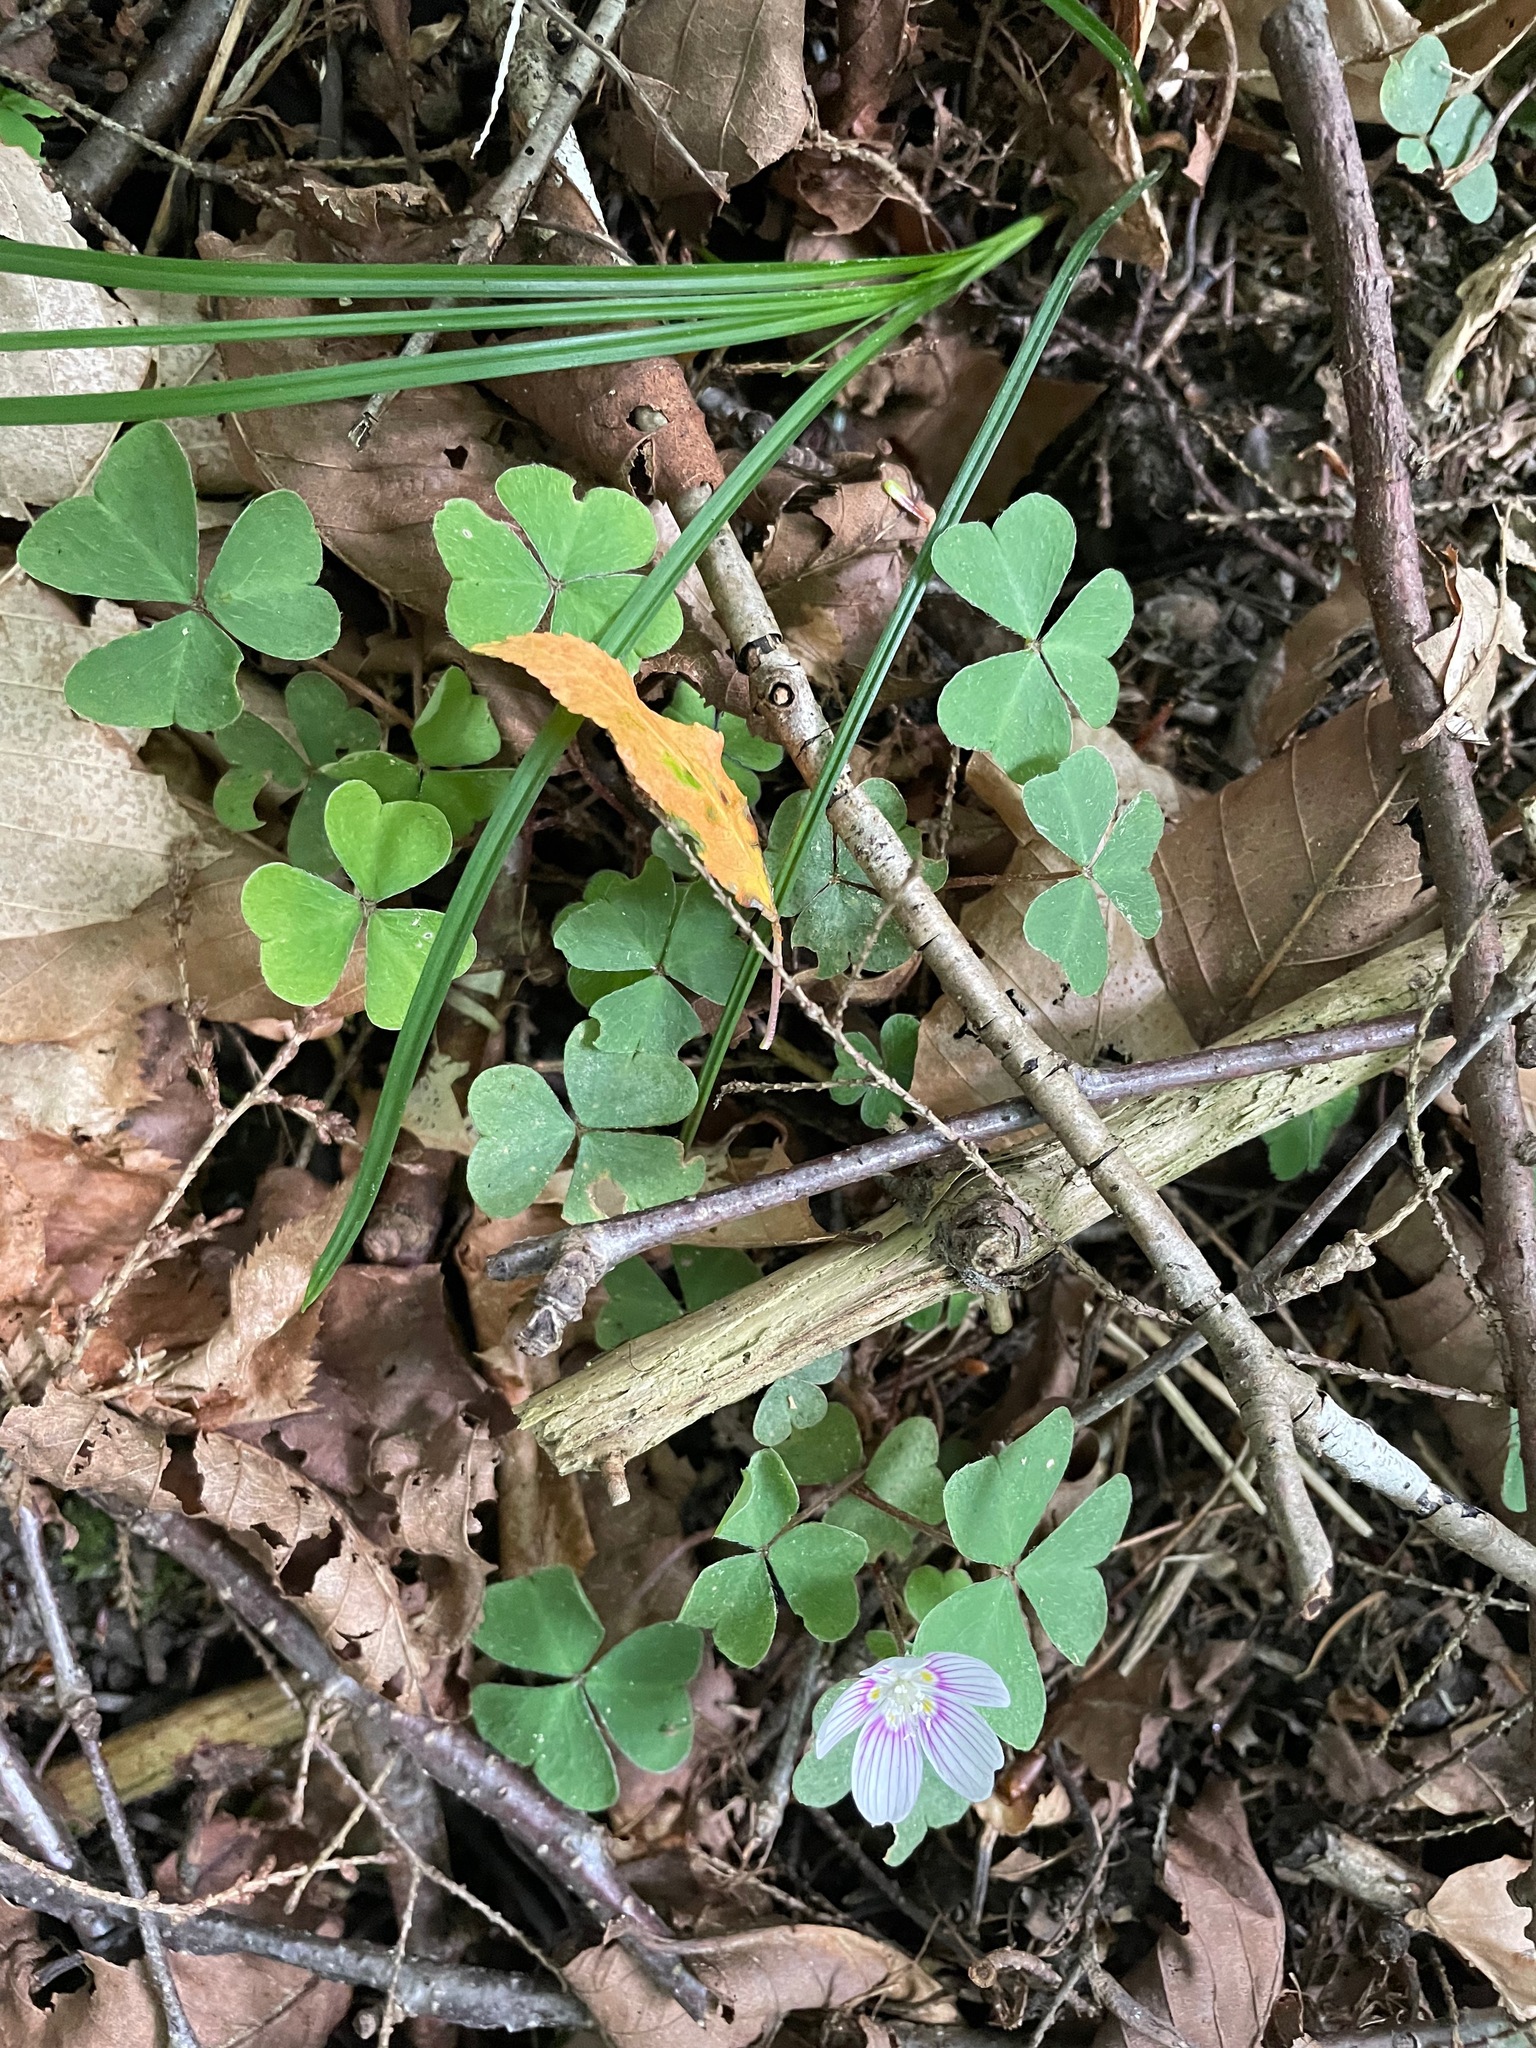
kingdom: Plantae
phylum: Tracheophyta
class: Magnoliopsida
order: Oxalidales
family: Oxalidaceae
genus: Oxalis
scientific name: Oxalis montana
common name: American wood-sorrel
